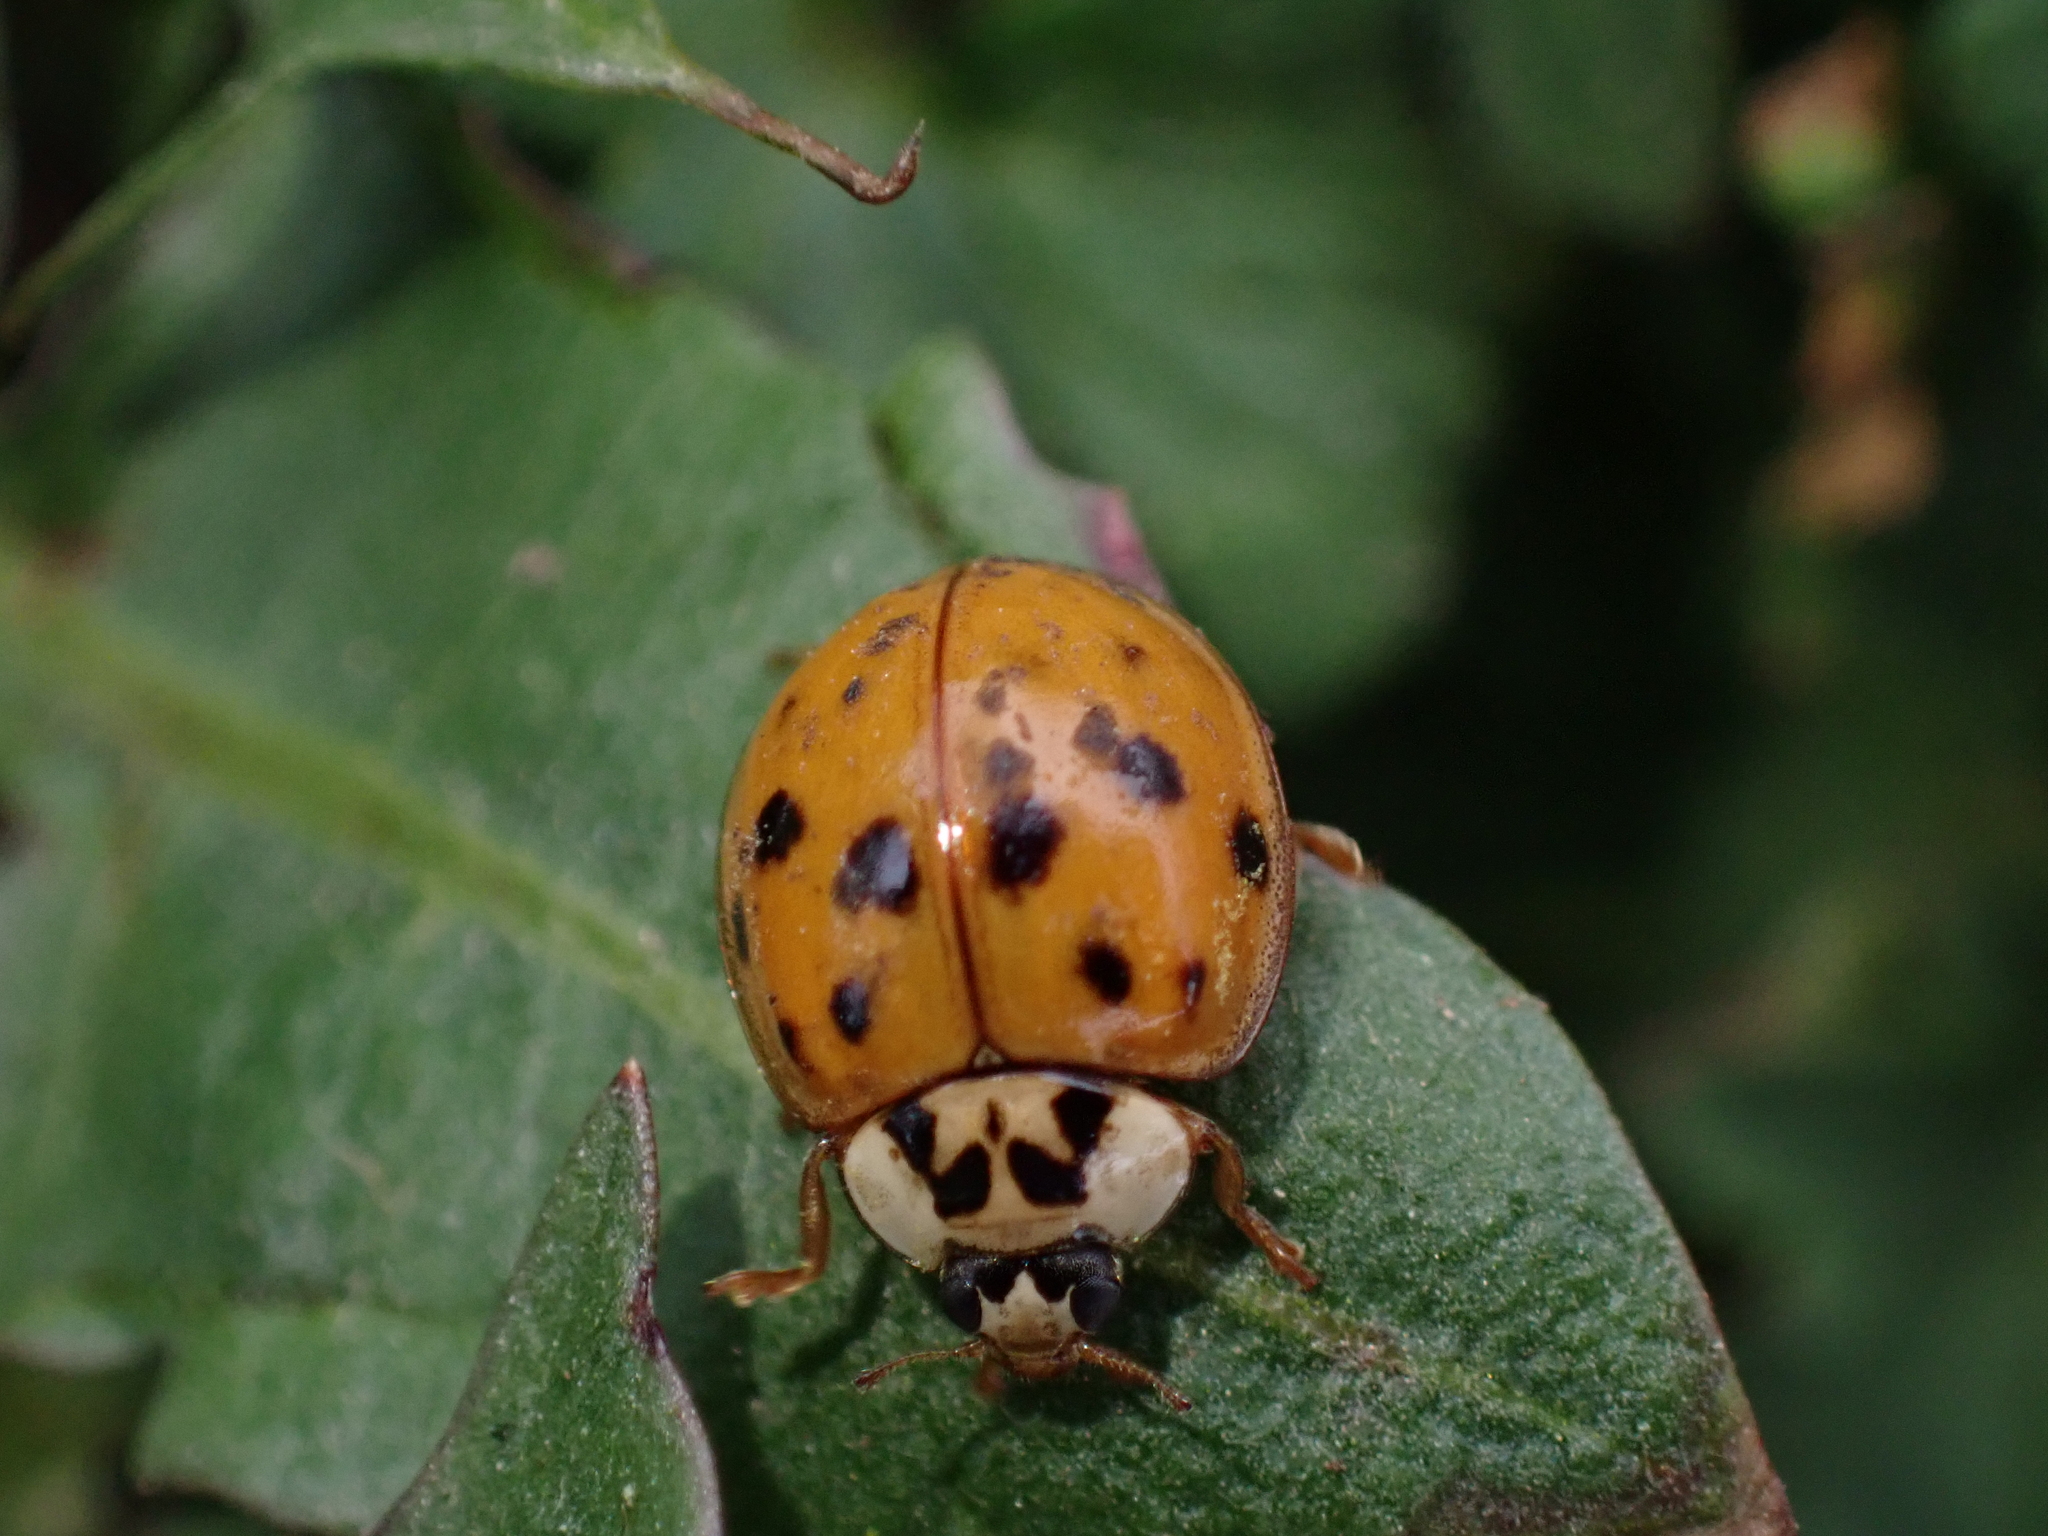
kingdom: Animalia
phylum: Arthropoda
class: Insecta
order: Coleoptera
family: Coccinellidae
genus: Harmonia
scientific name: Harmonia axyridis
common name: Harlequin ladybird
